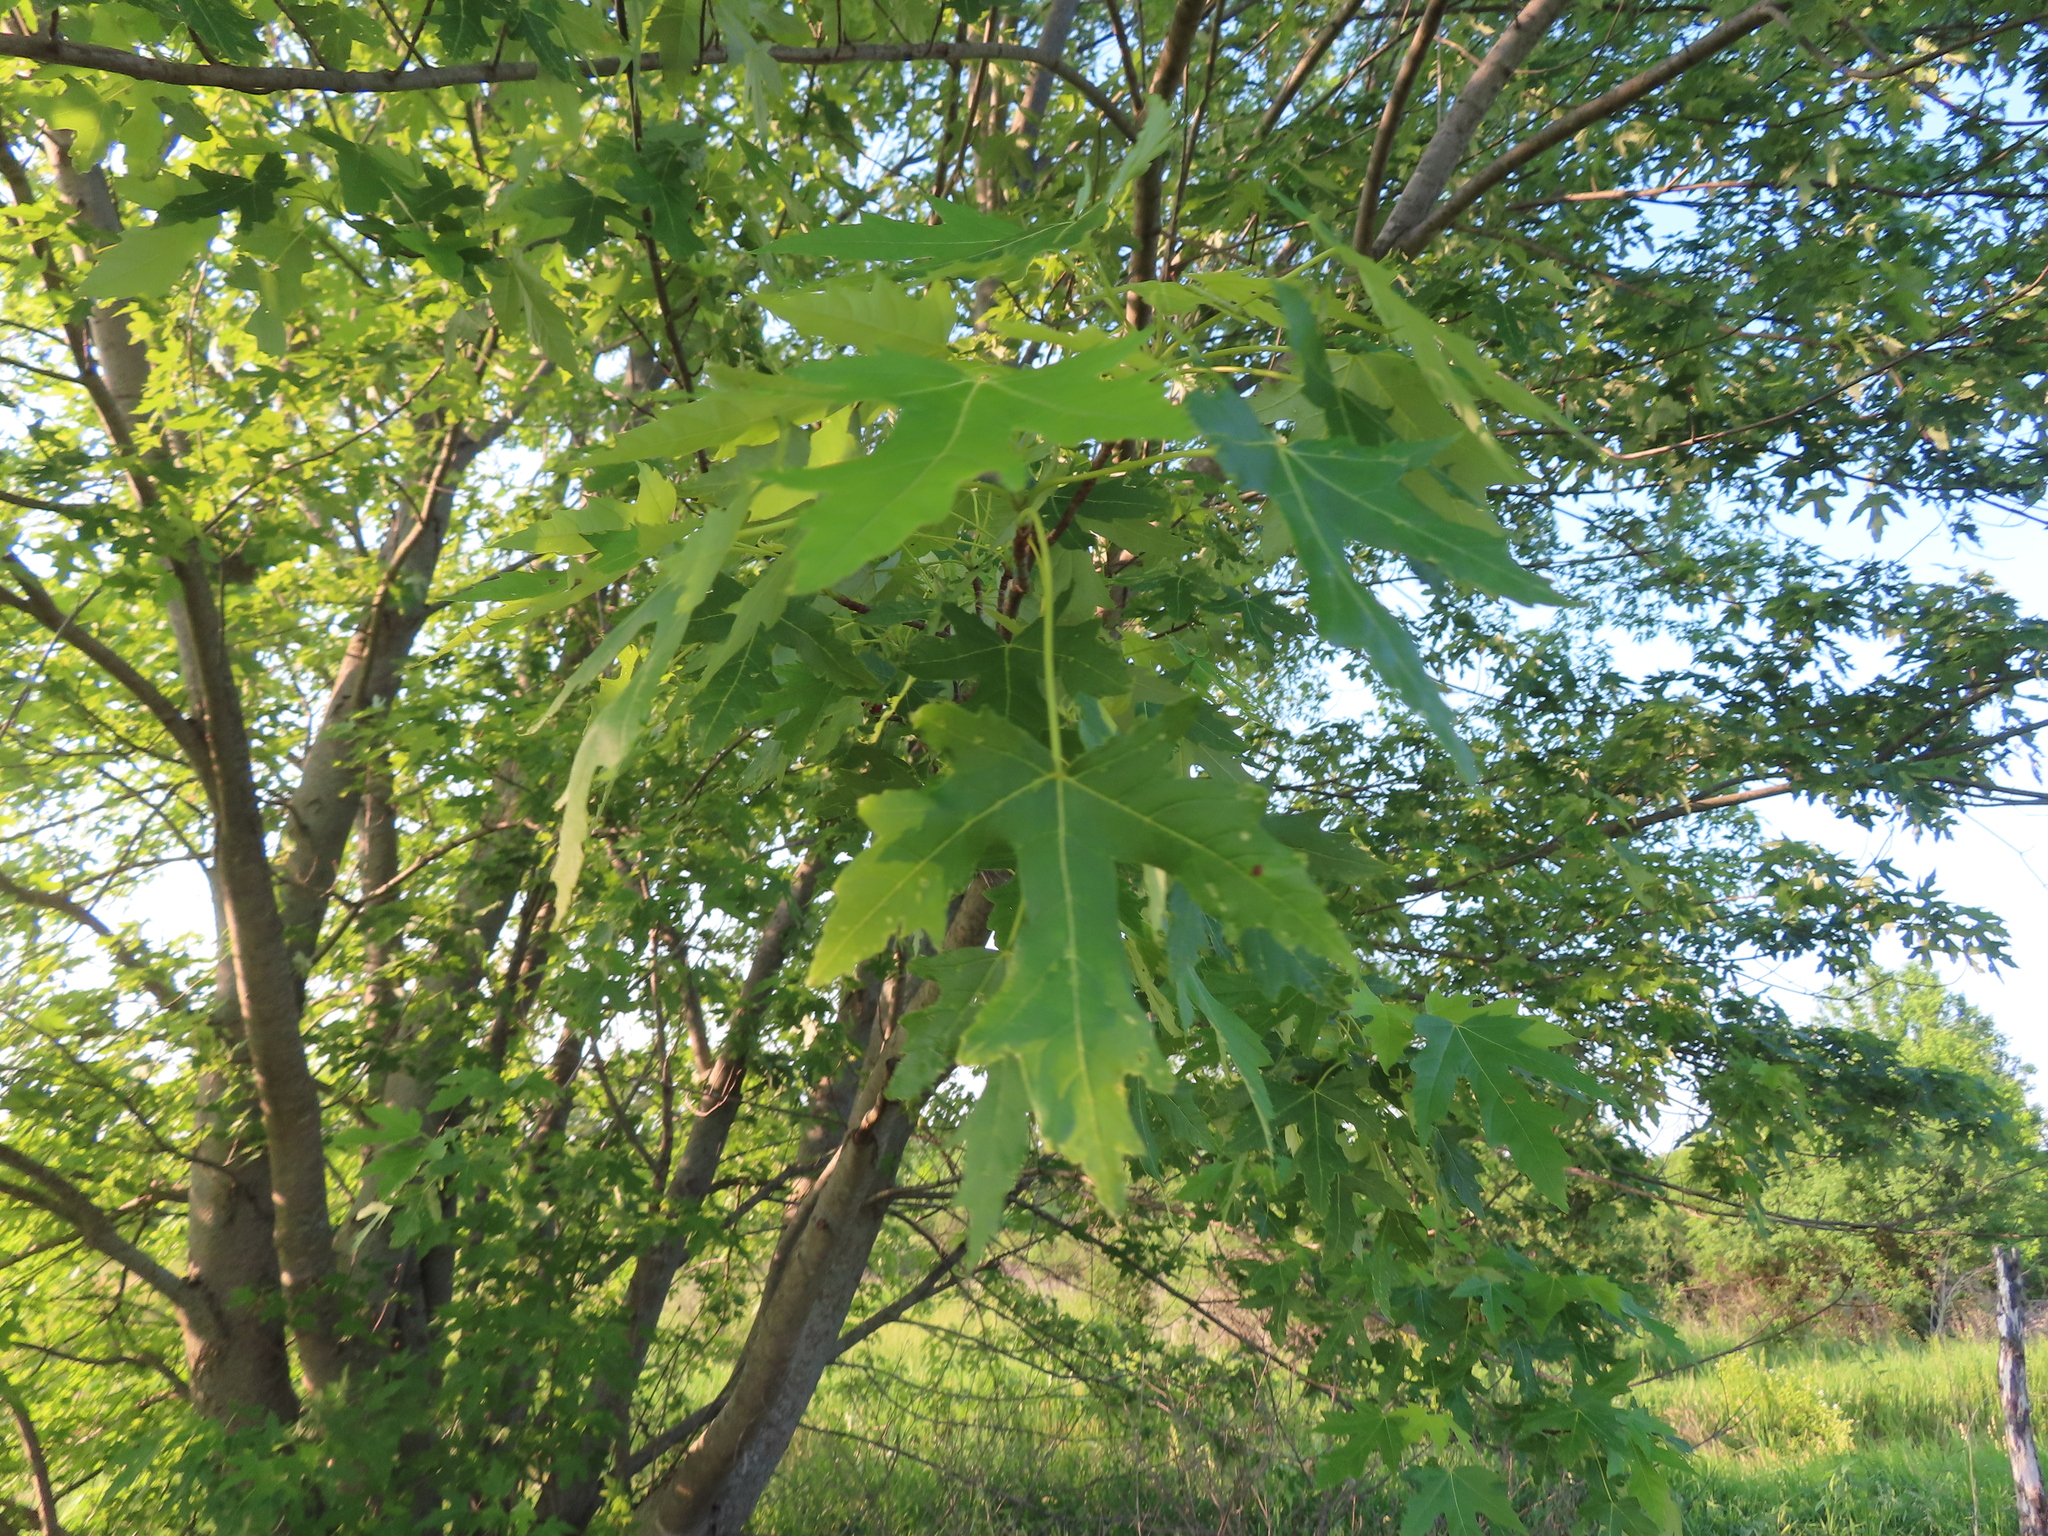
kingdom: Plantae
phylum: Tracheophyta
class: Magnoliopsida
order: Sapindales
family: Sapindaceae
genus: Acer
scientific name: Acer saccharinum
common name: Silver maple
